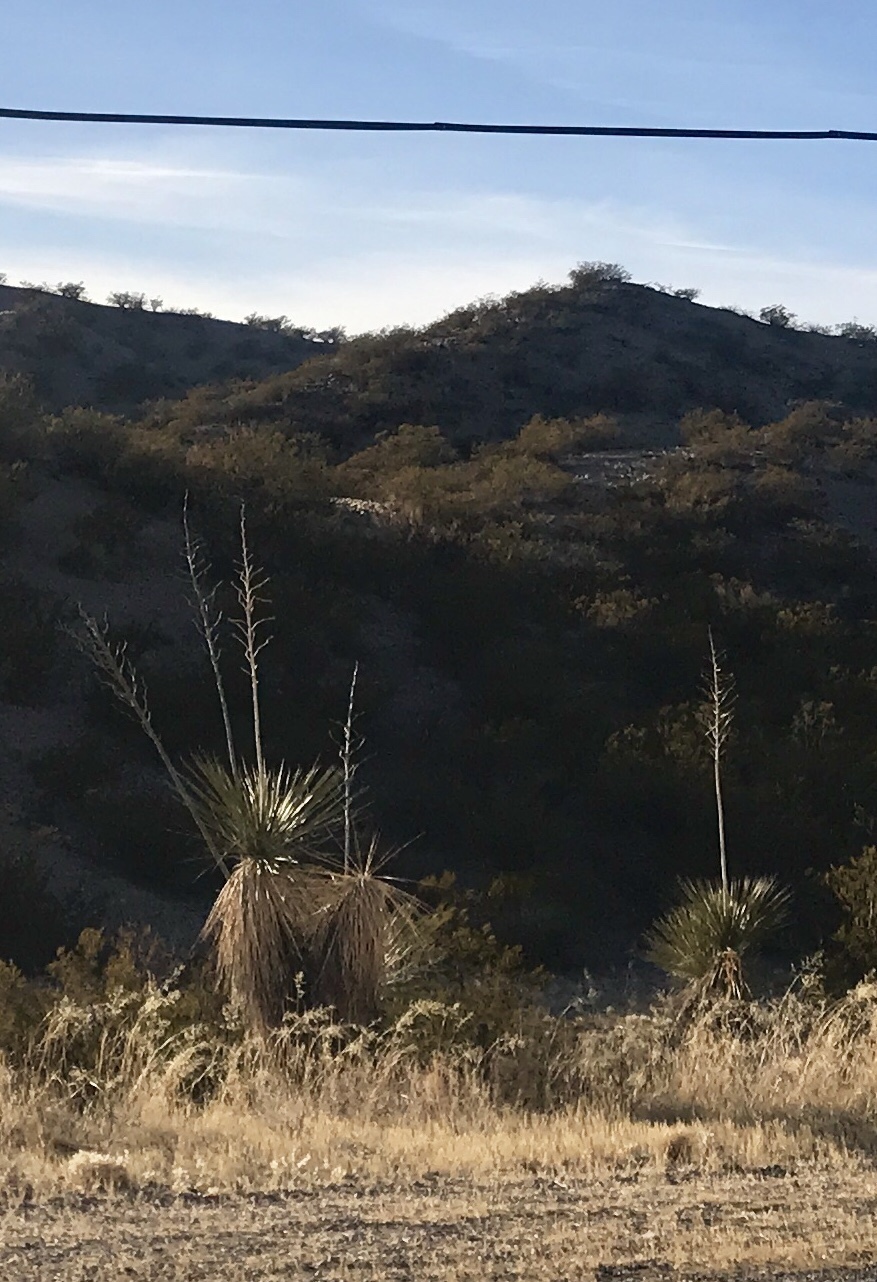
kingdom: Plantae
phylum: Tracheophyta
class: Liliopsida
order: Asparagales
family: Asparagaceae
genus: Yucca
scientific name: Yucca elata
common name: Palmella
